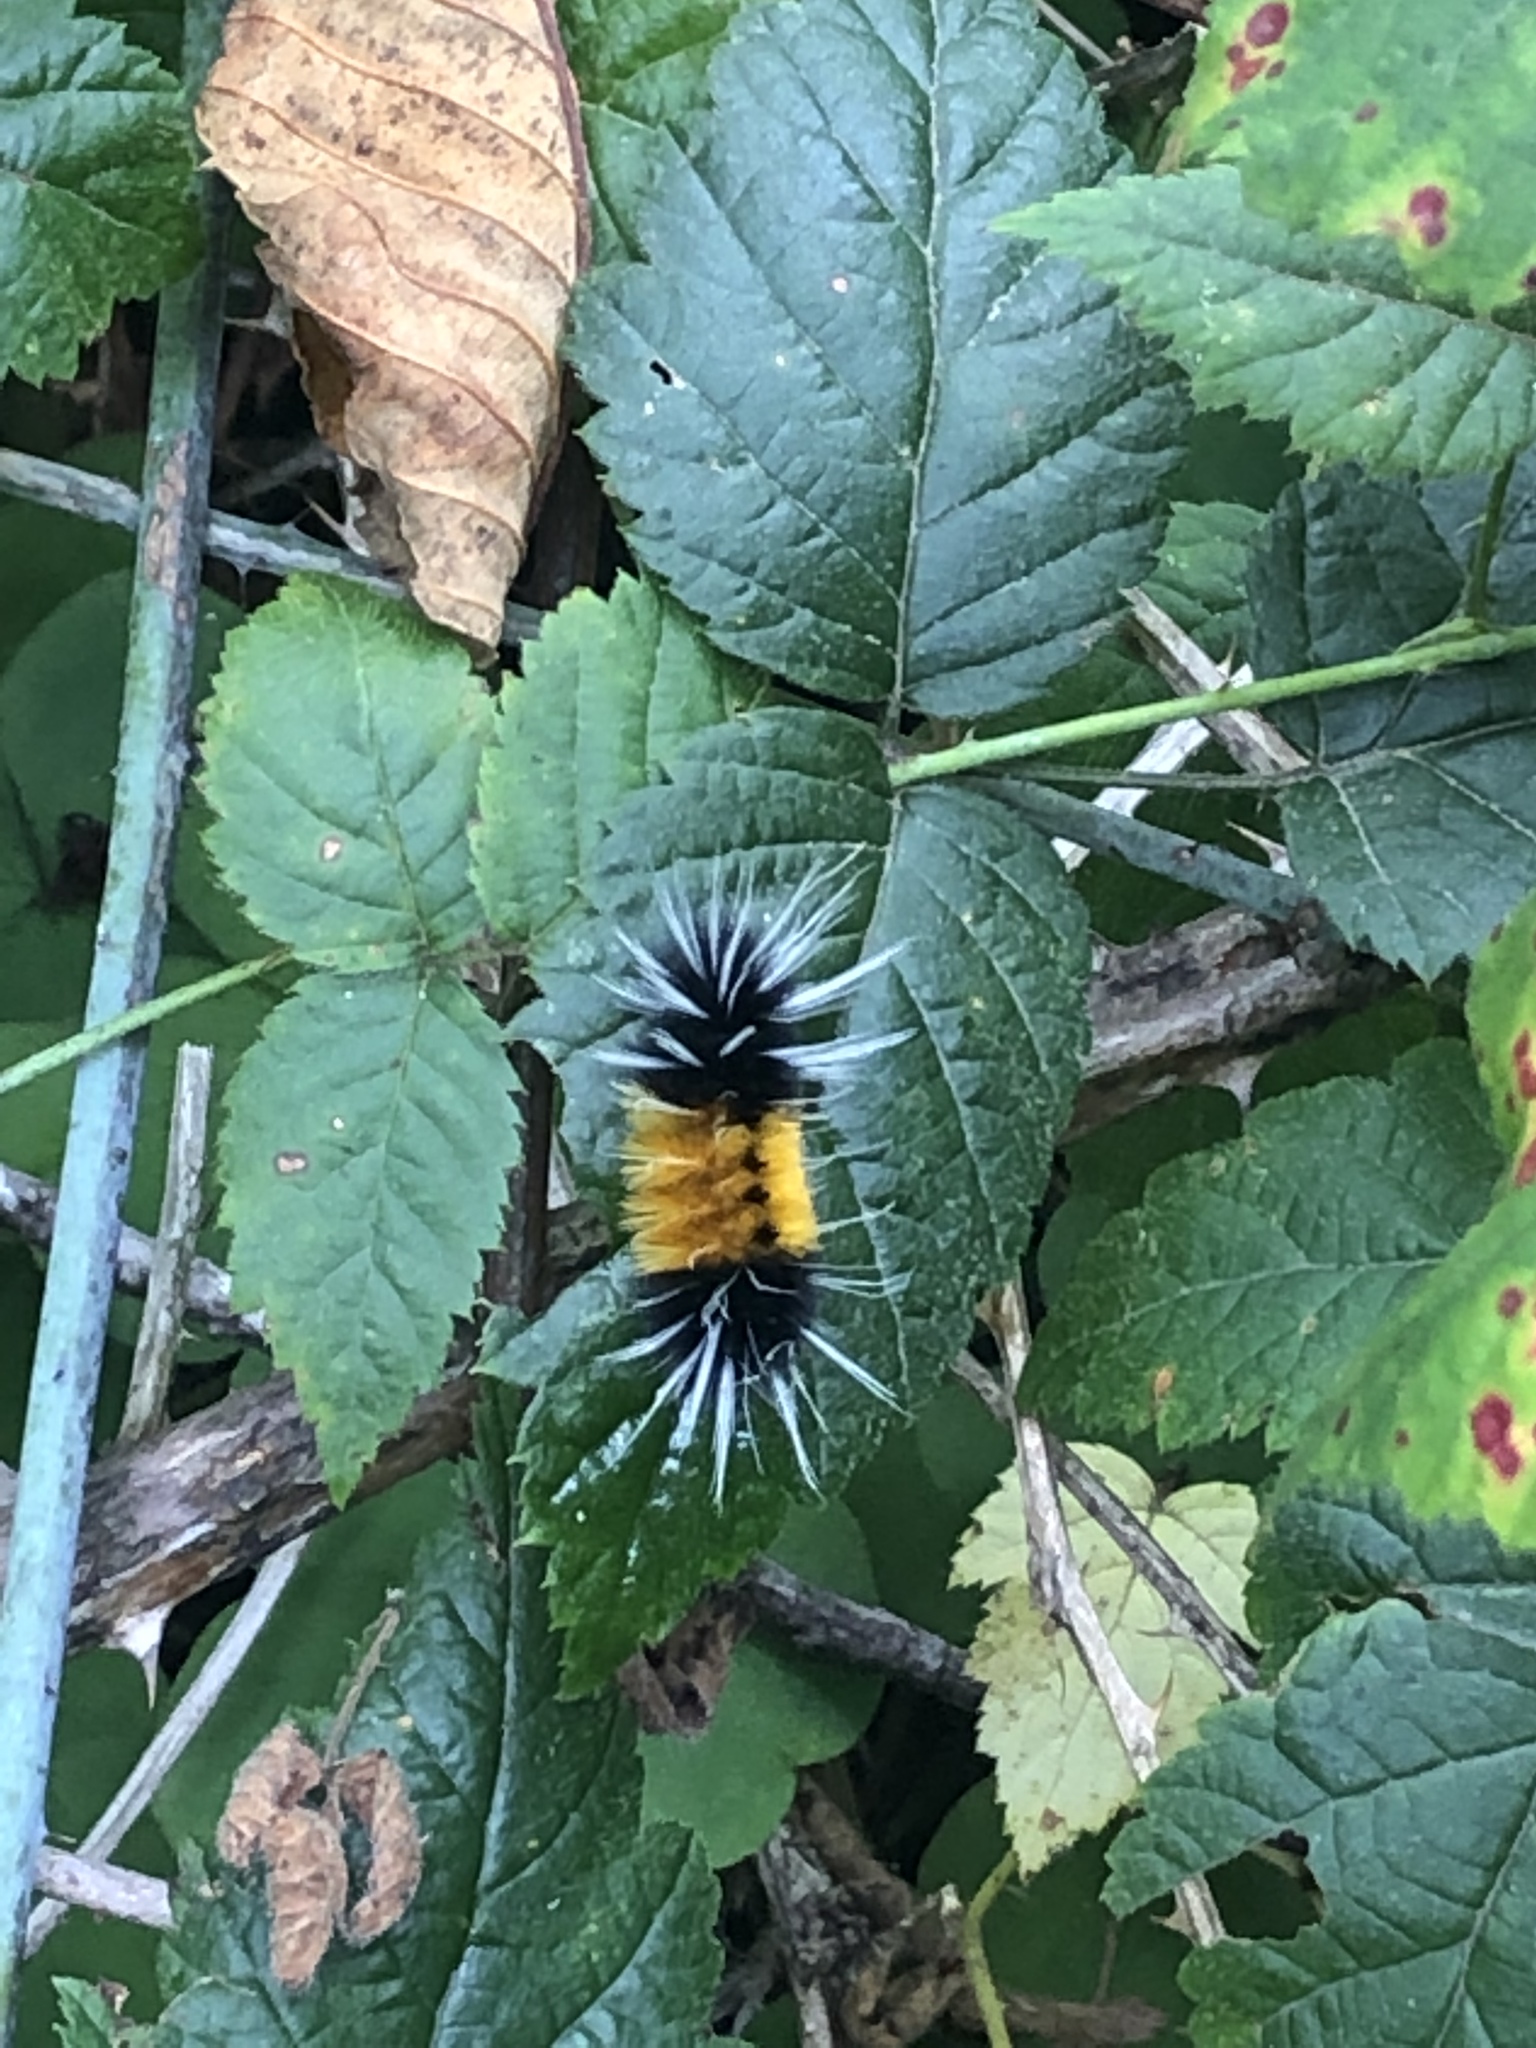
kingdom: Animalia
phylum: Arthropoda
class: Insecta
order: Lepidoptera
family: Erebidae
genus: Lophocampa
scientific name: Lophocampa maculata
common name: Spotted tussock moth
